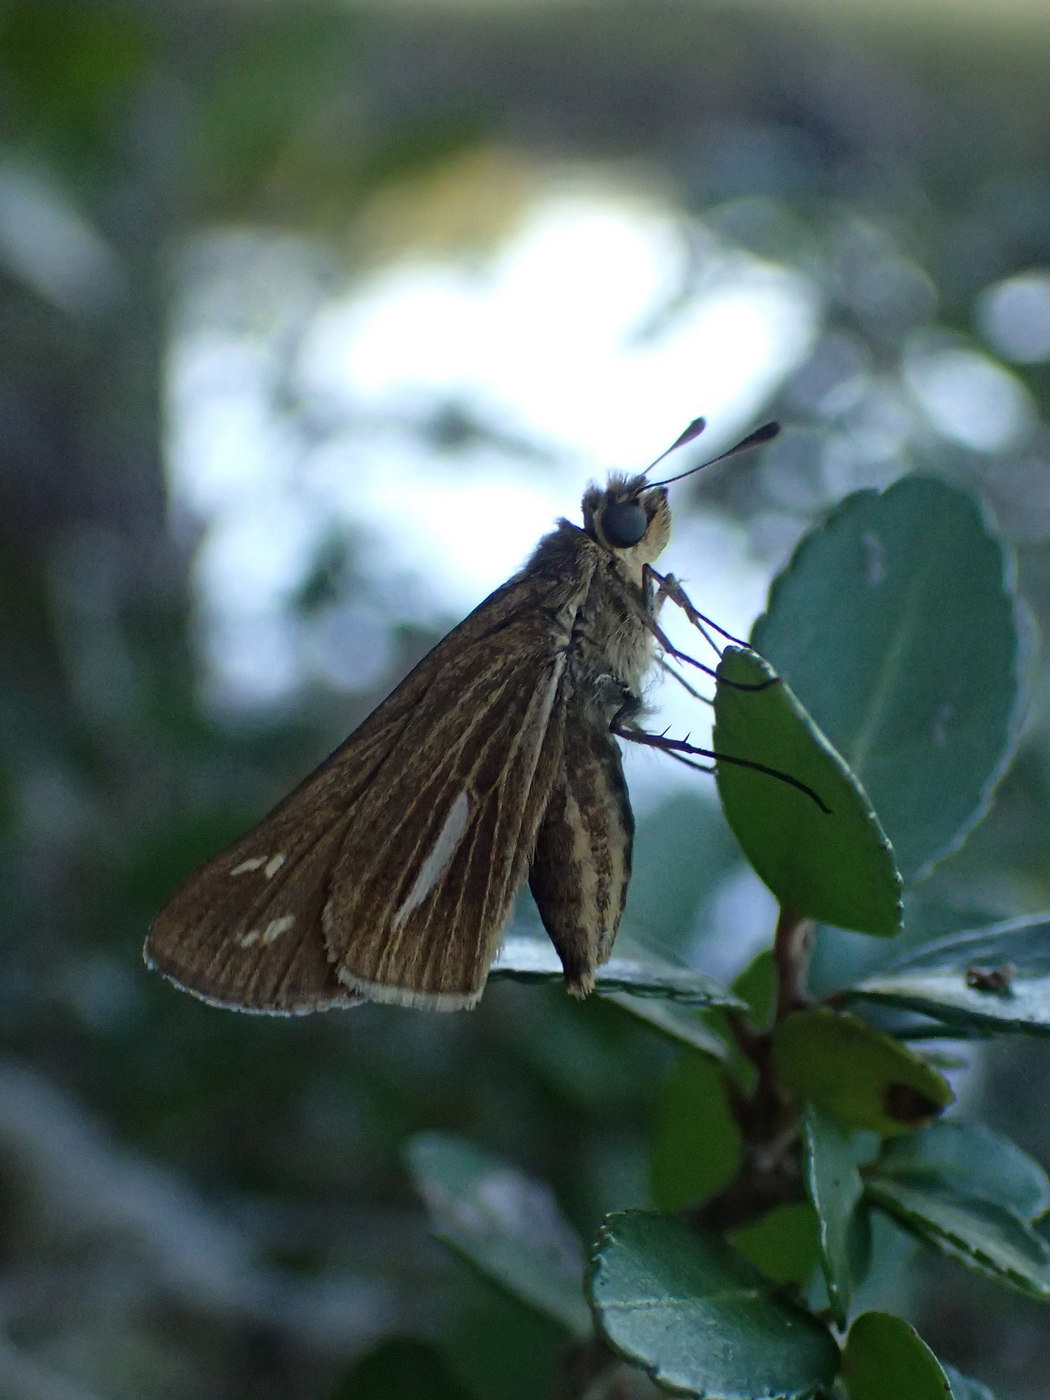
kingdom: Animalia
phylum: Arthropoda
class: Insecta
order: Lepidoptera
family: Hesperiidae
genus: Panoquina
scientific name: Panoquina panoquin
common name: Salt marsh skipper
